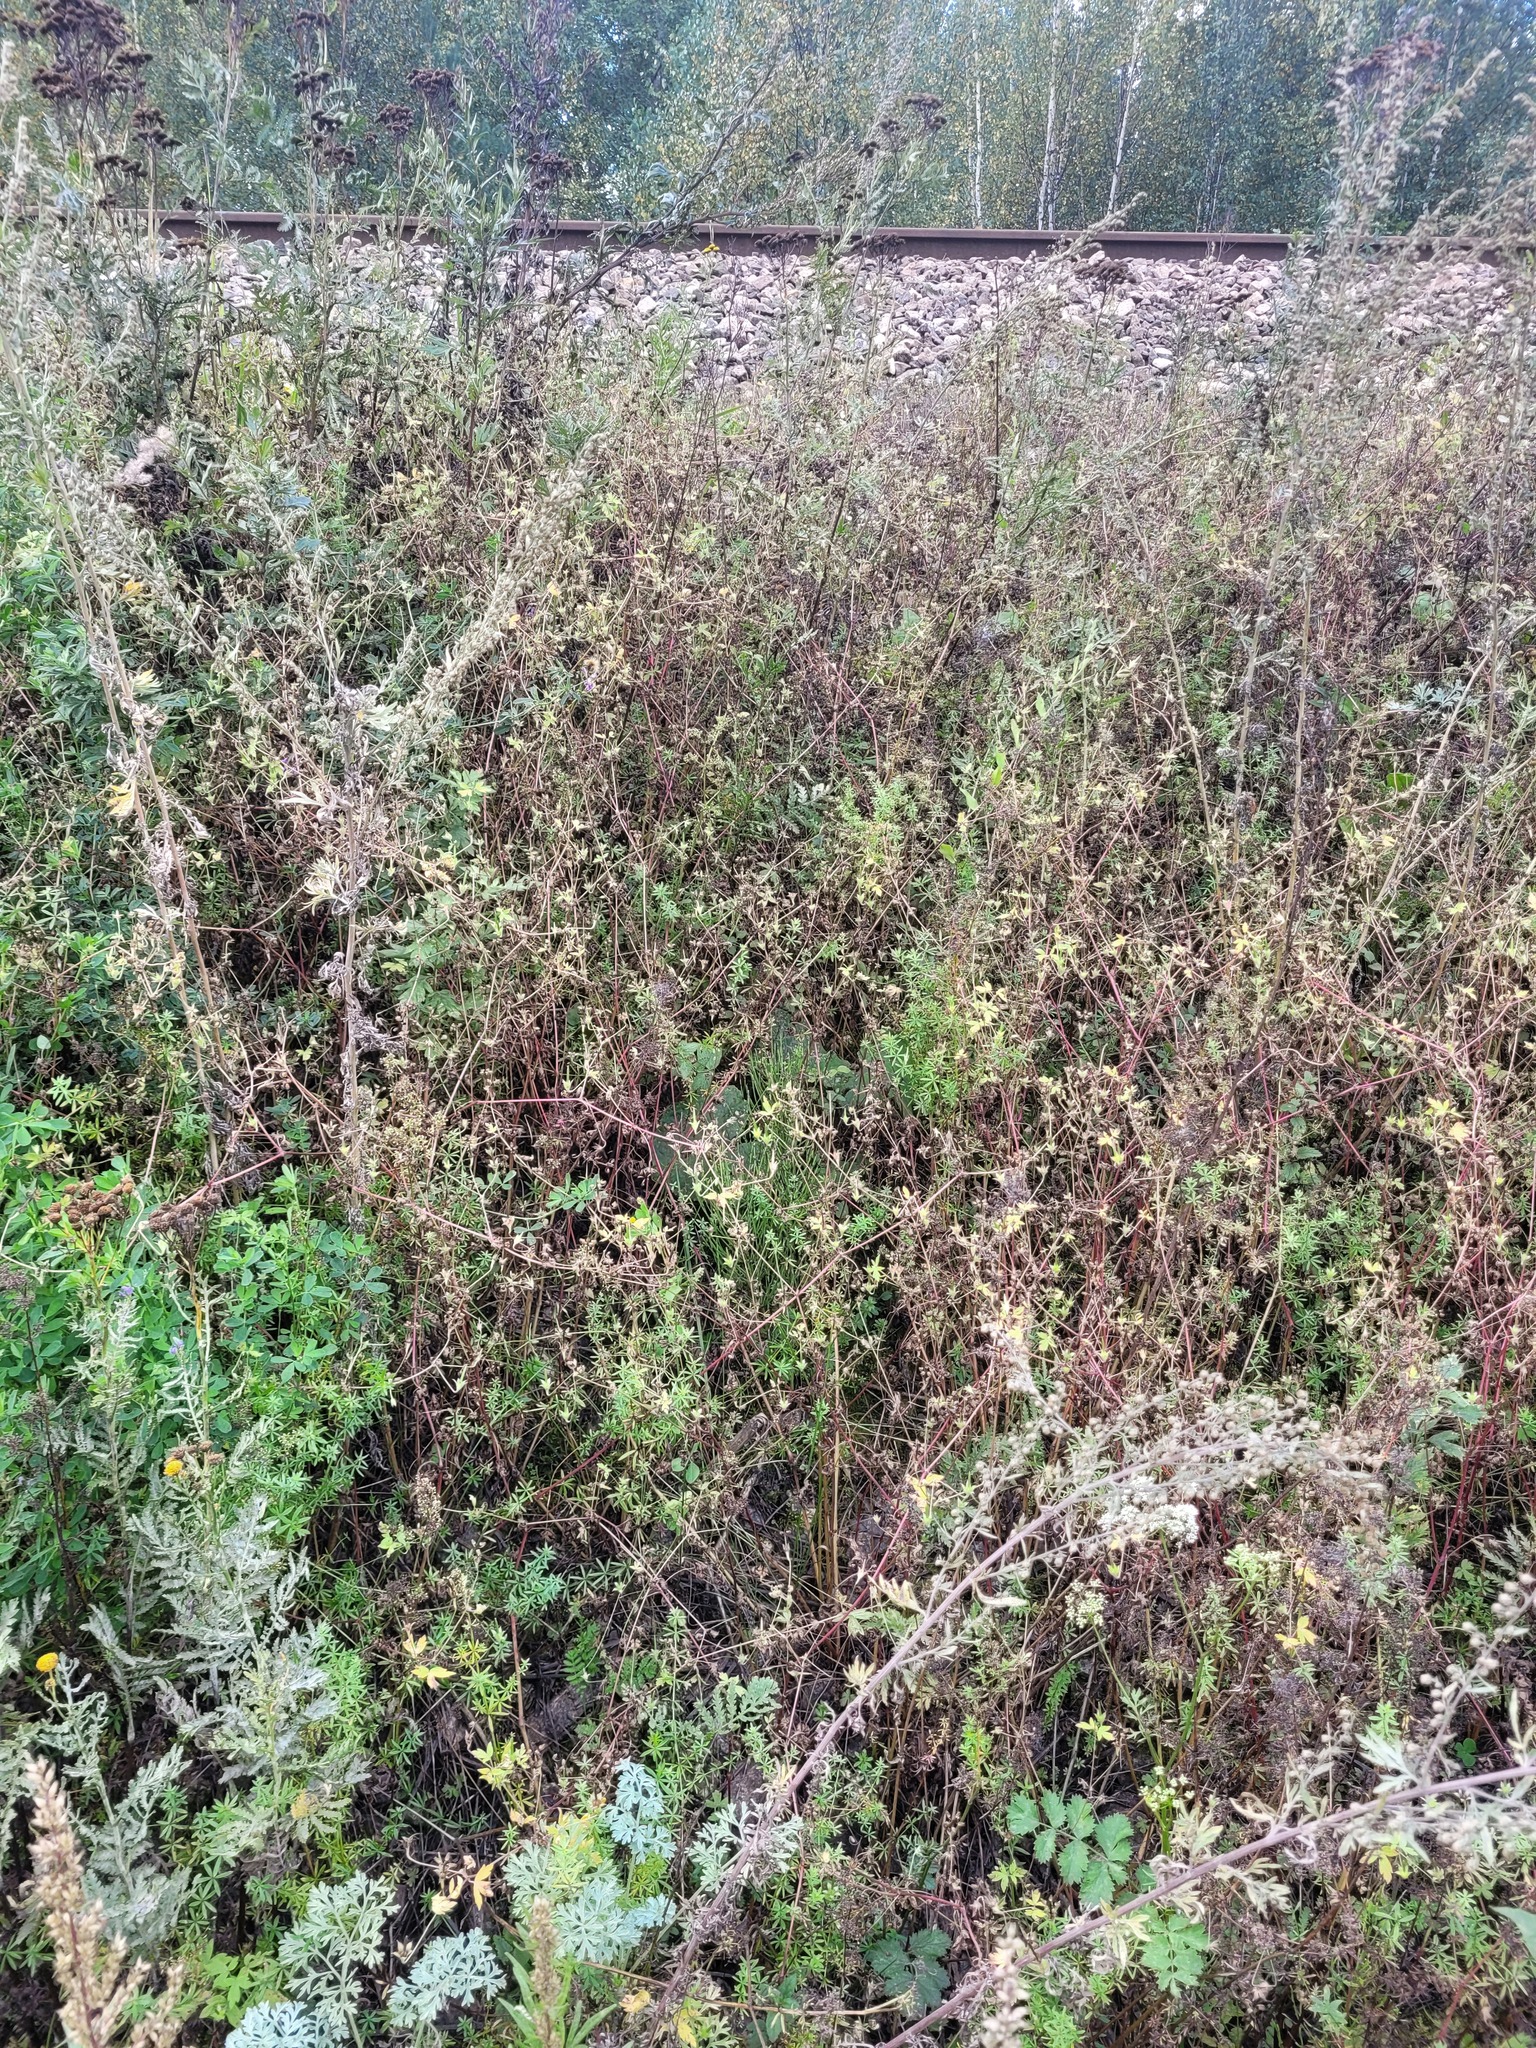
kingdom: Plantae
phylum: Tracheophyta
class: Magnoliopsida
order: Geraniales
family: Geraniaceae
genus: Geranium
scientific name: Geranium sibiricum
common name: Siberian crane's-bill
